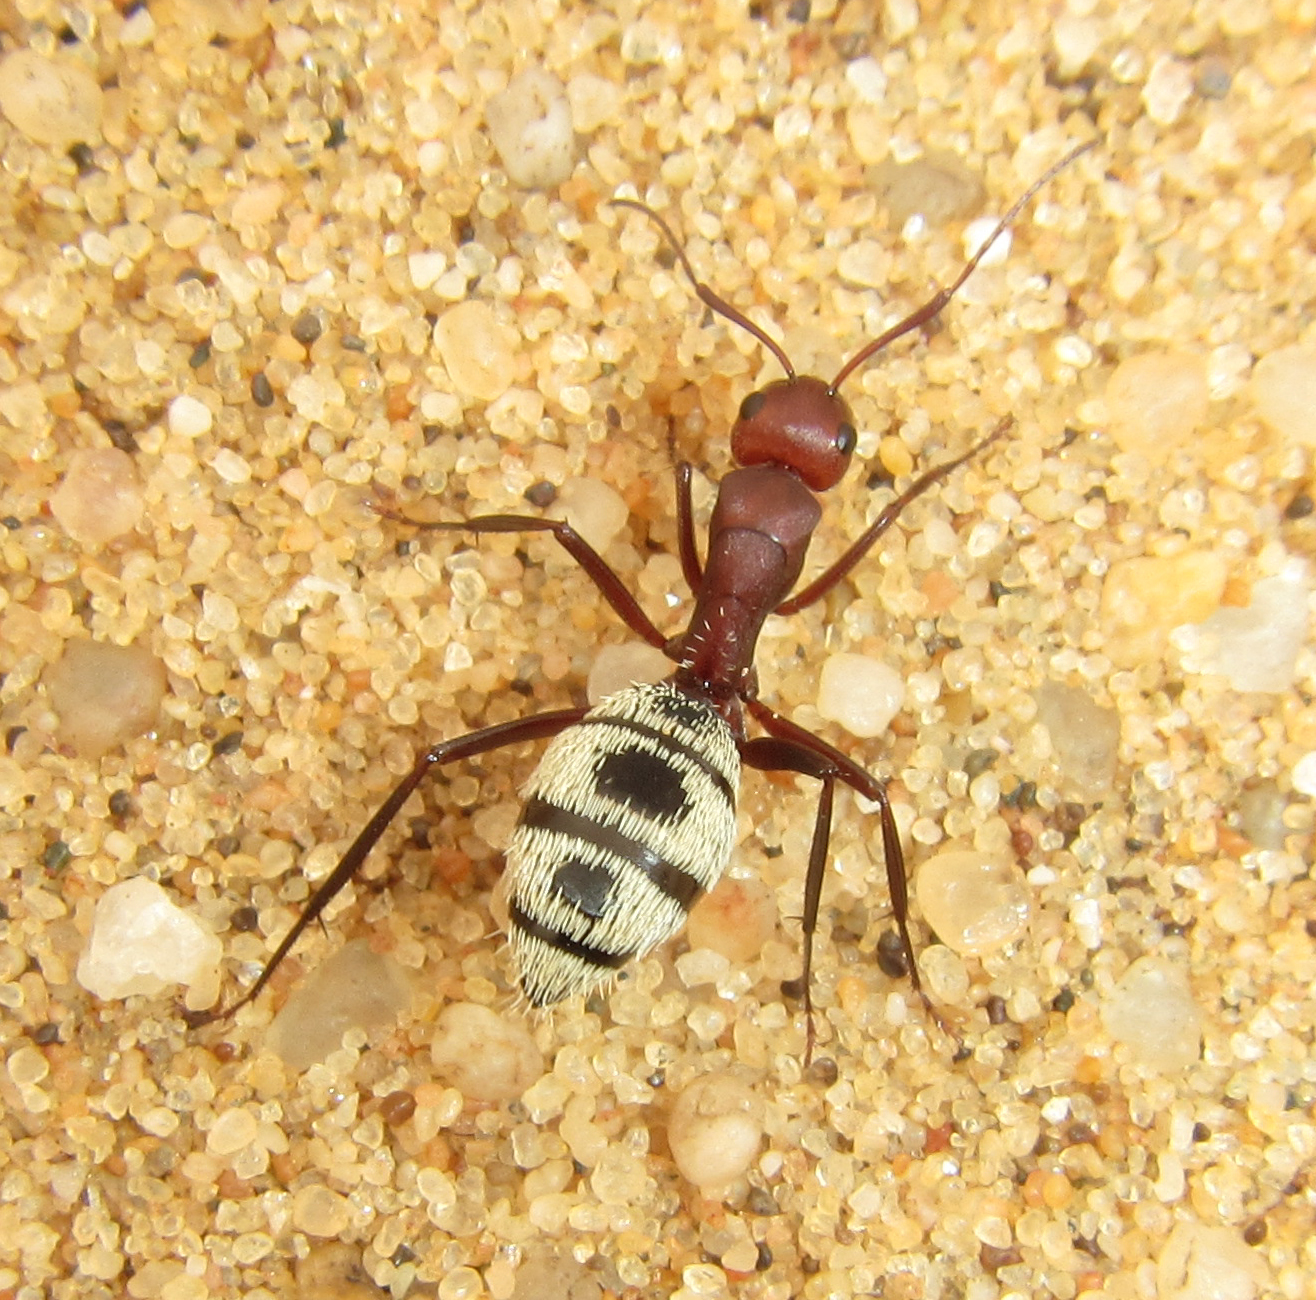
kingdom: Animalia
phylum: Arthropoda
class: Insecta
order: Hymenoptera
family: Formicidae
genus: Camponotus
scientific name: Camponotus detritus
